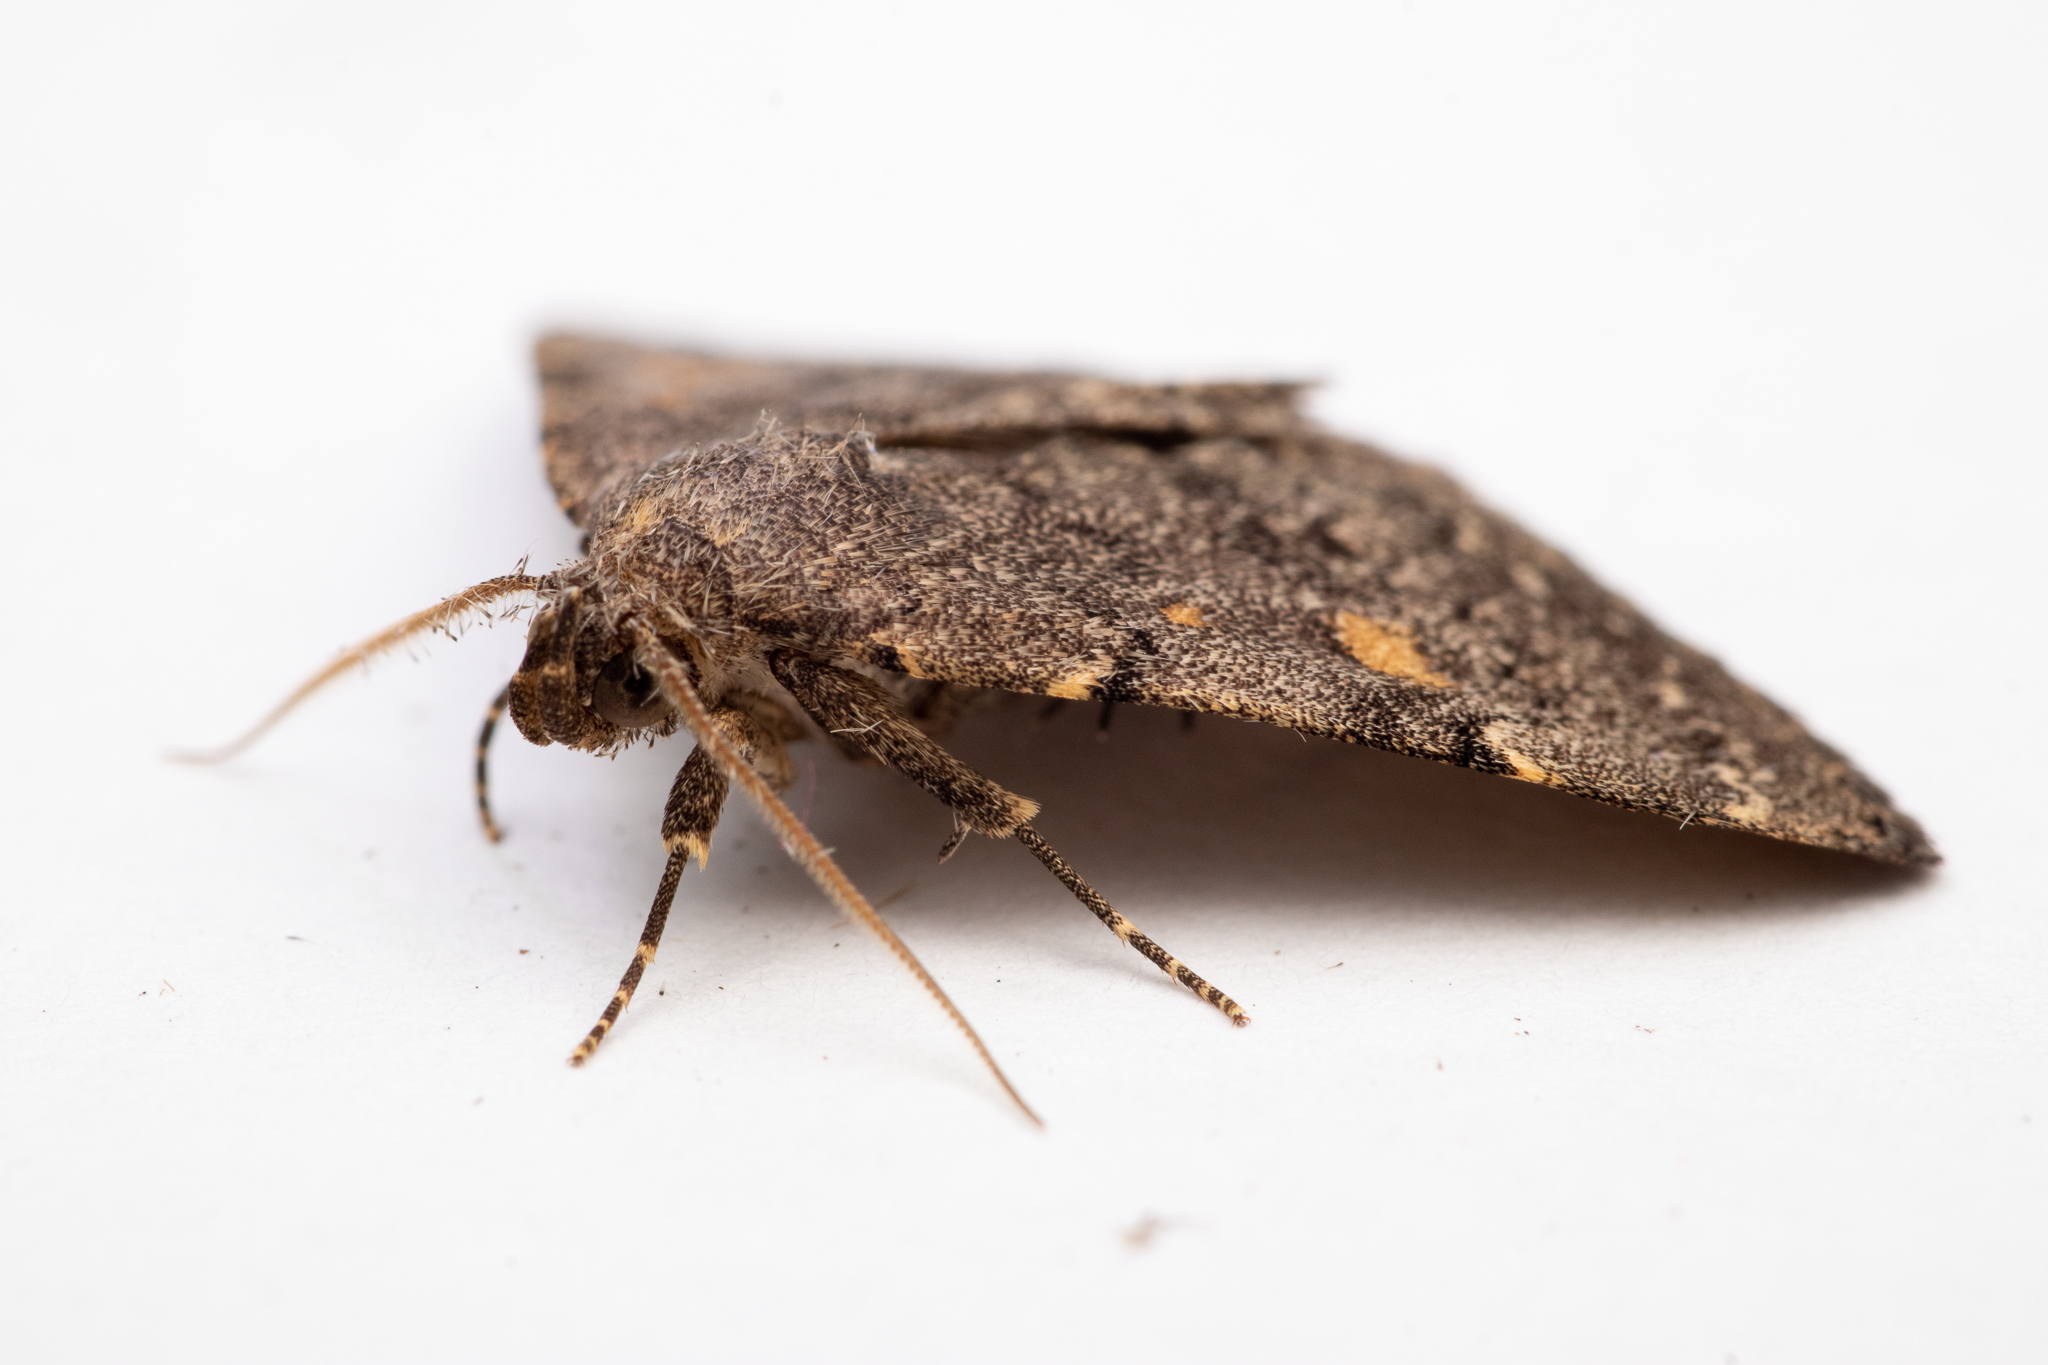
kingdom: Animalia
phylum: Arthropoda
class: Insecta
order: Lepidoptera
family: Erebidae
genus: Idia
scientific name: Idia aemula
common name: Common idia moth
